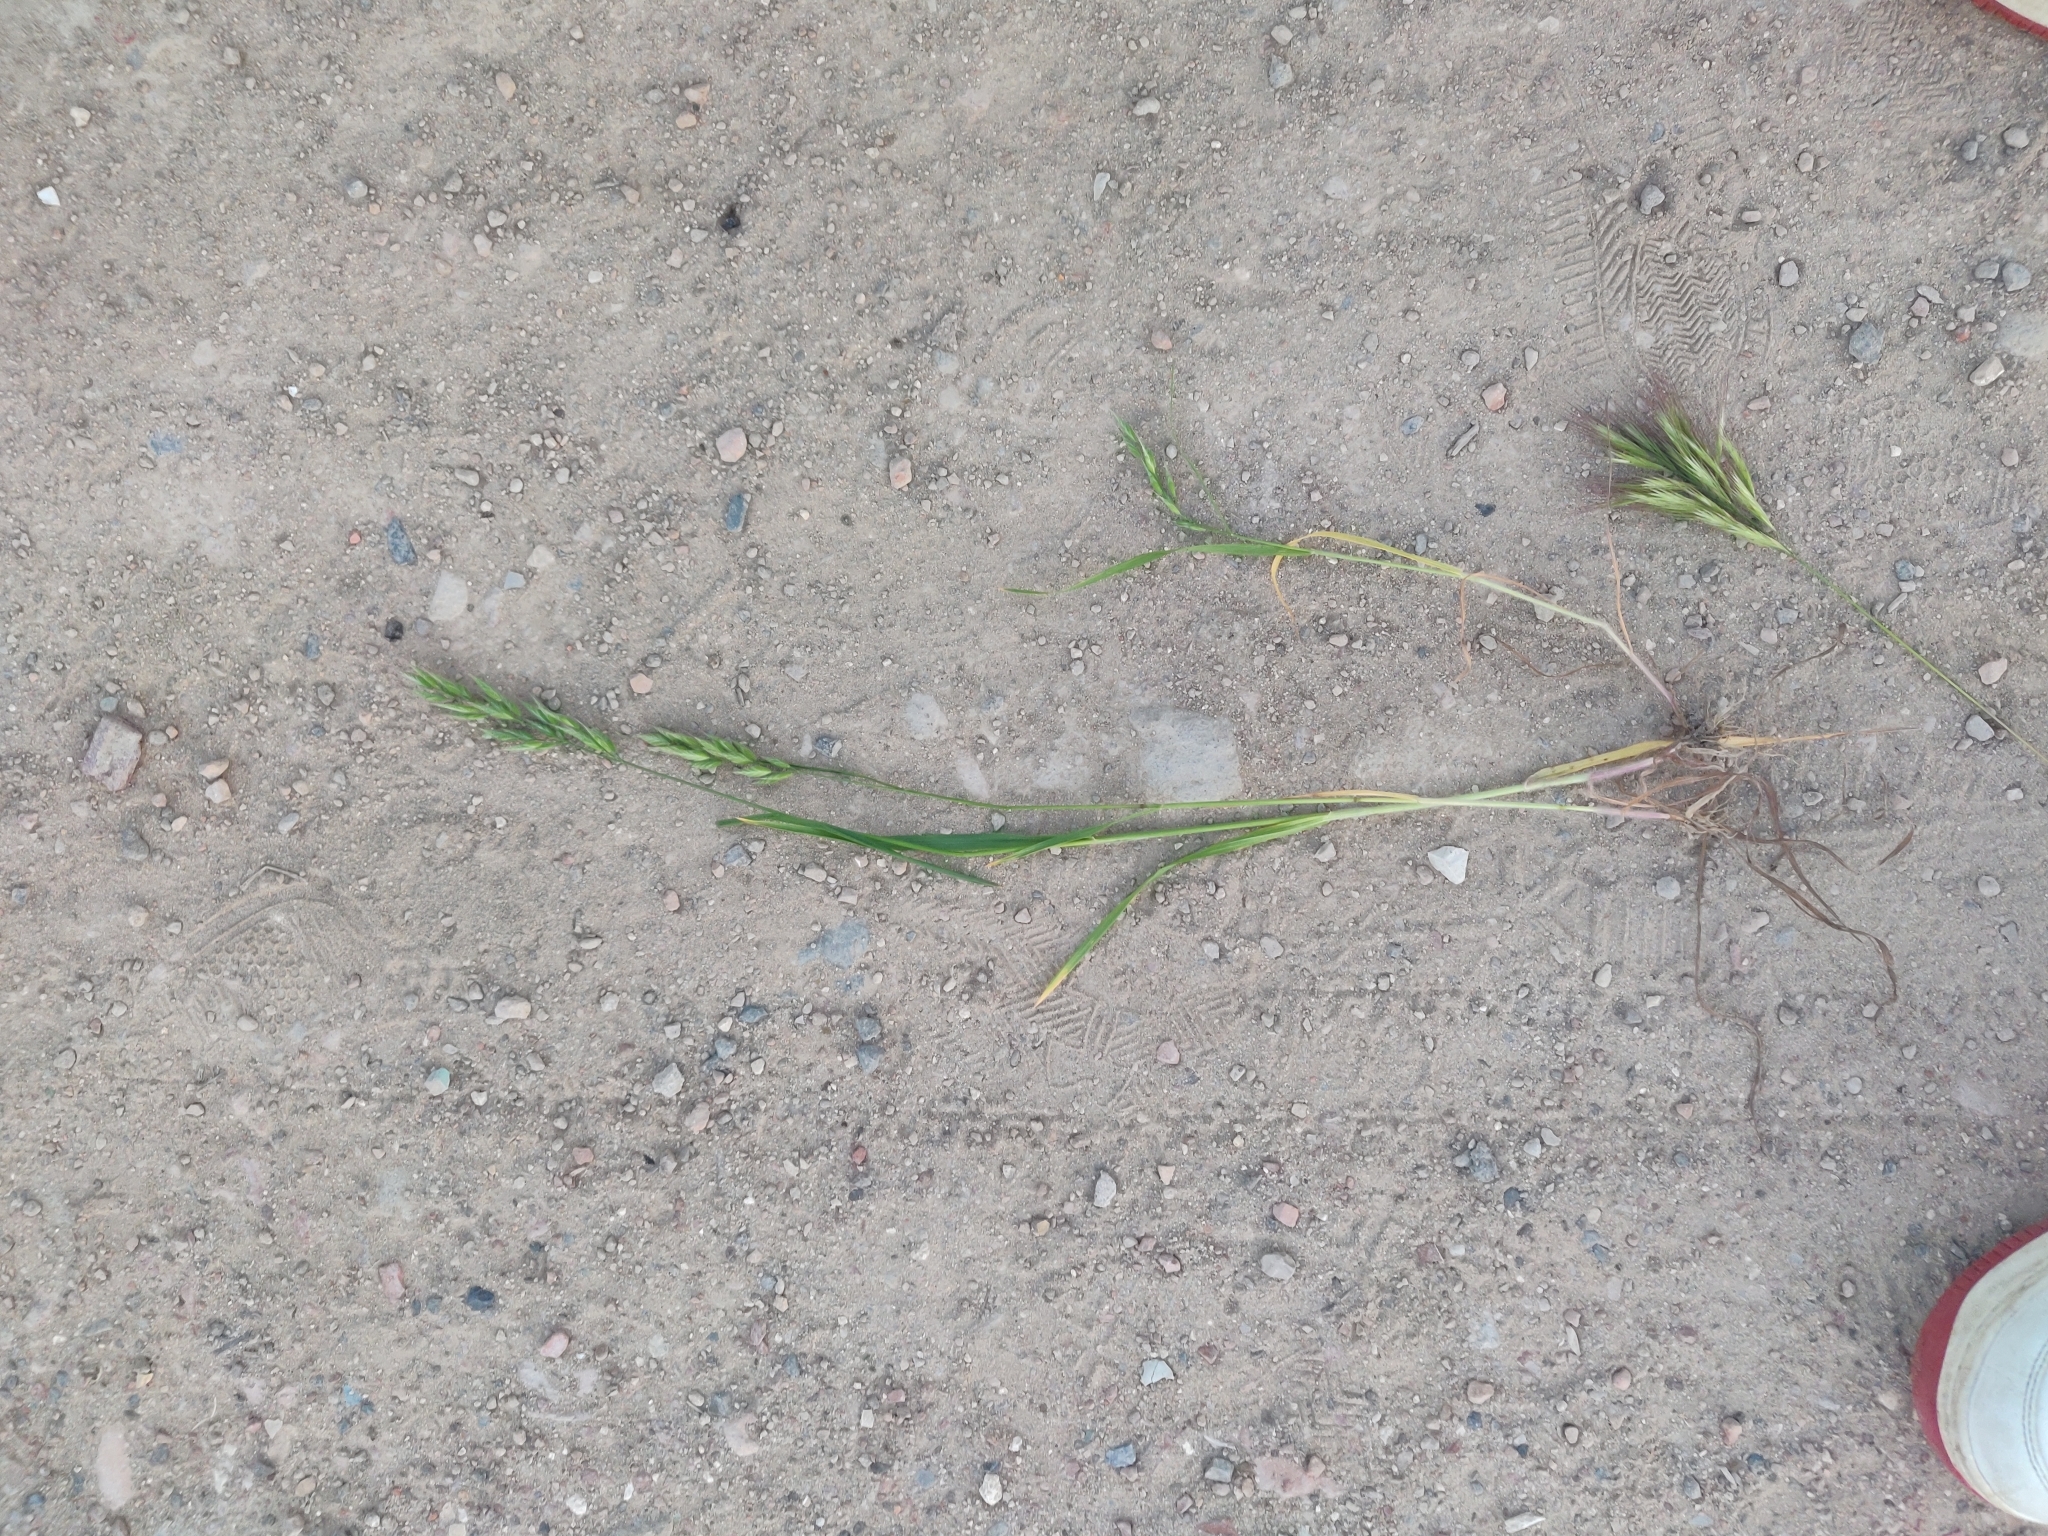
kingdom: Plantae
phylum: Tracheophyta
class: Liliopsida
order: Poales
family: Poaceae
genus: Bromus
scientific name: Bromus hordeaceus
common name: Soft brome
